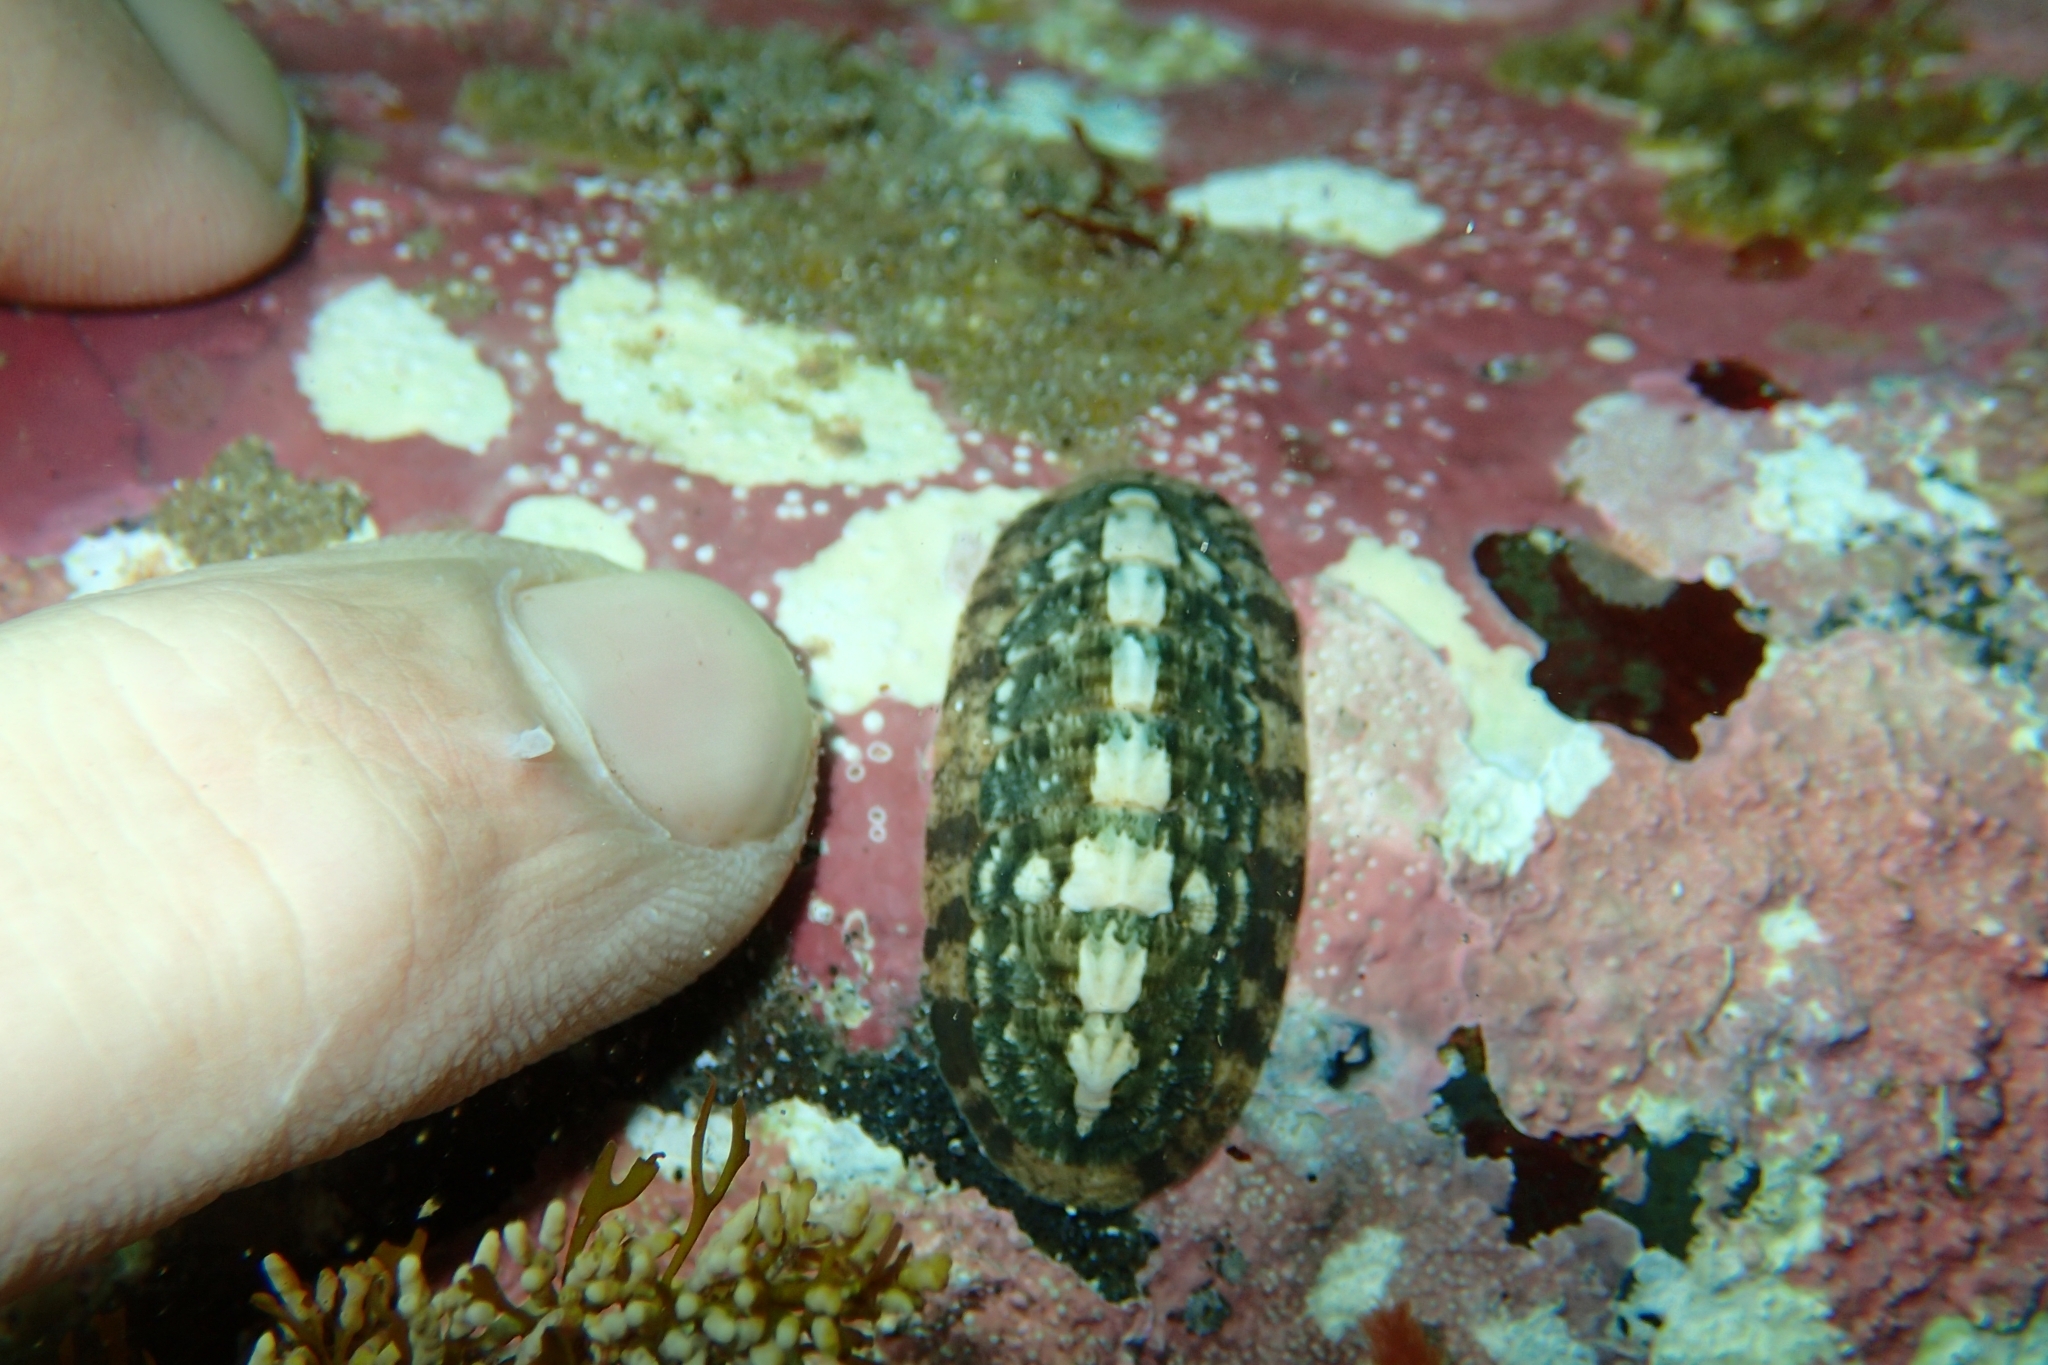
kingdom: Animalia
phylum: Mollusca
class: Polyplacophora
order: Chitonida
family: Ischnochitonidae
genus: Ischnochiton
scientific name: Ischnochiton maorianus
